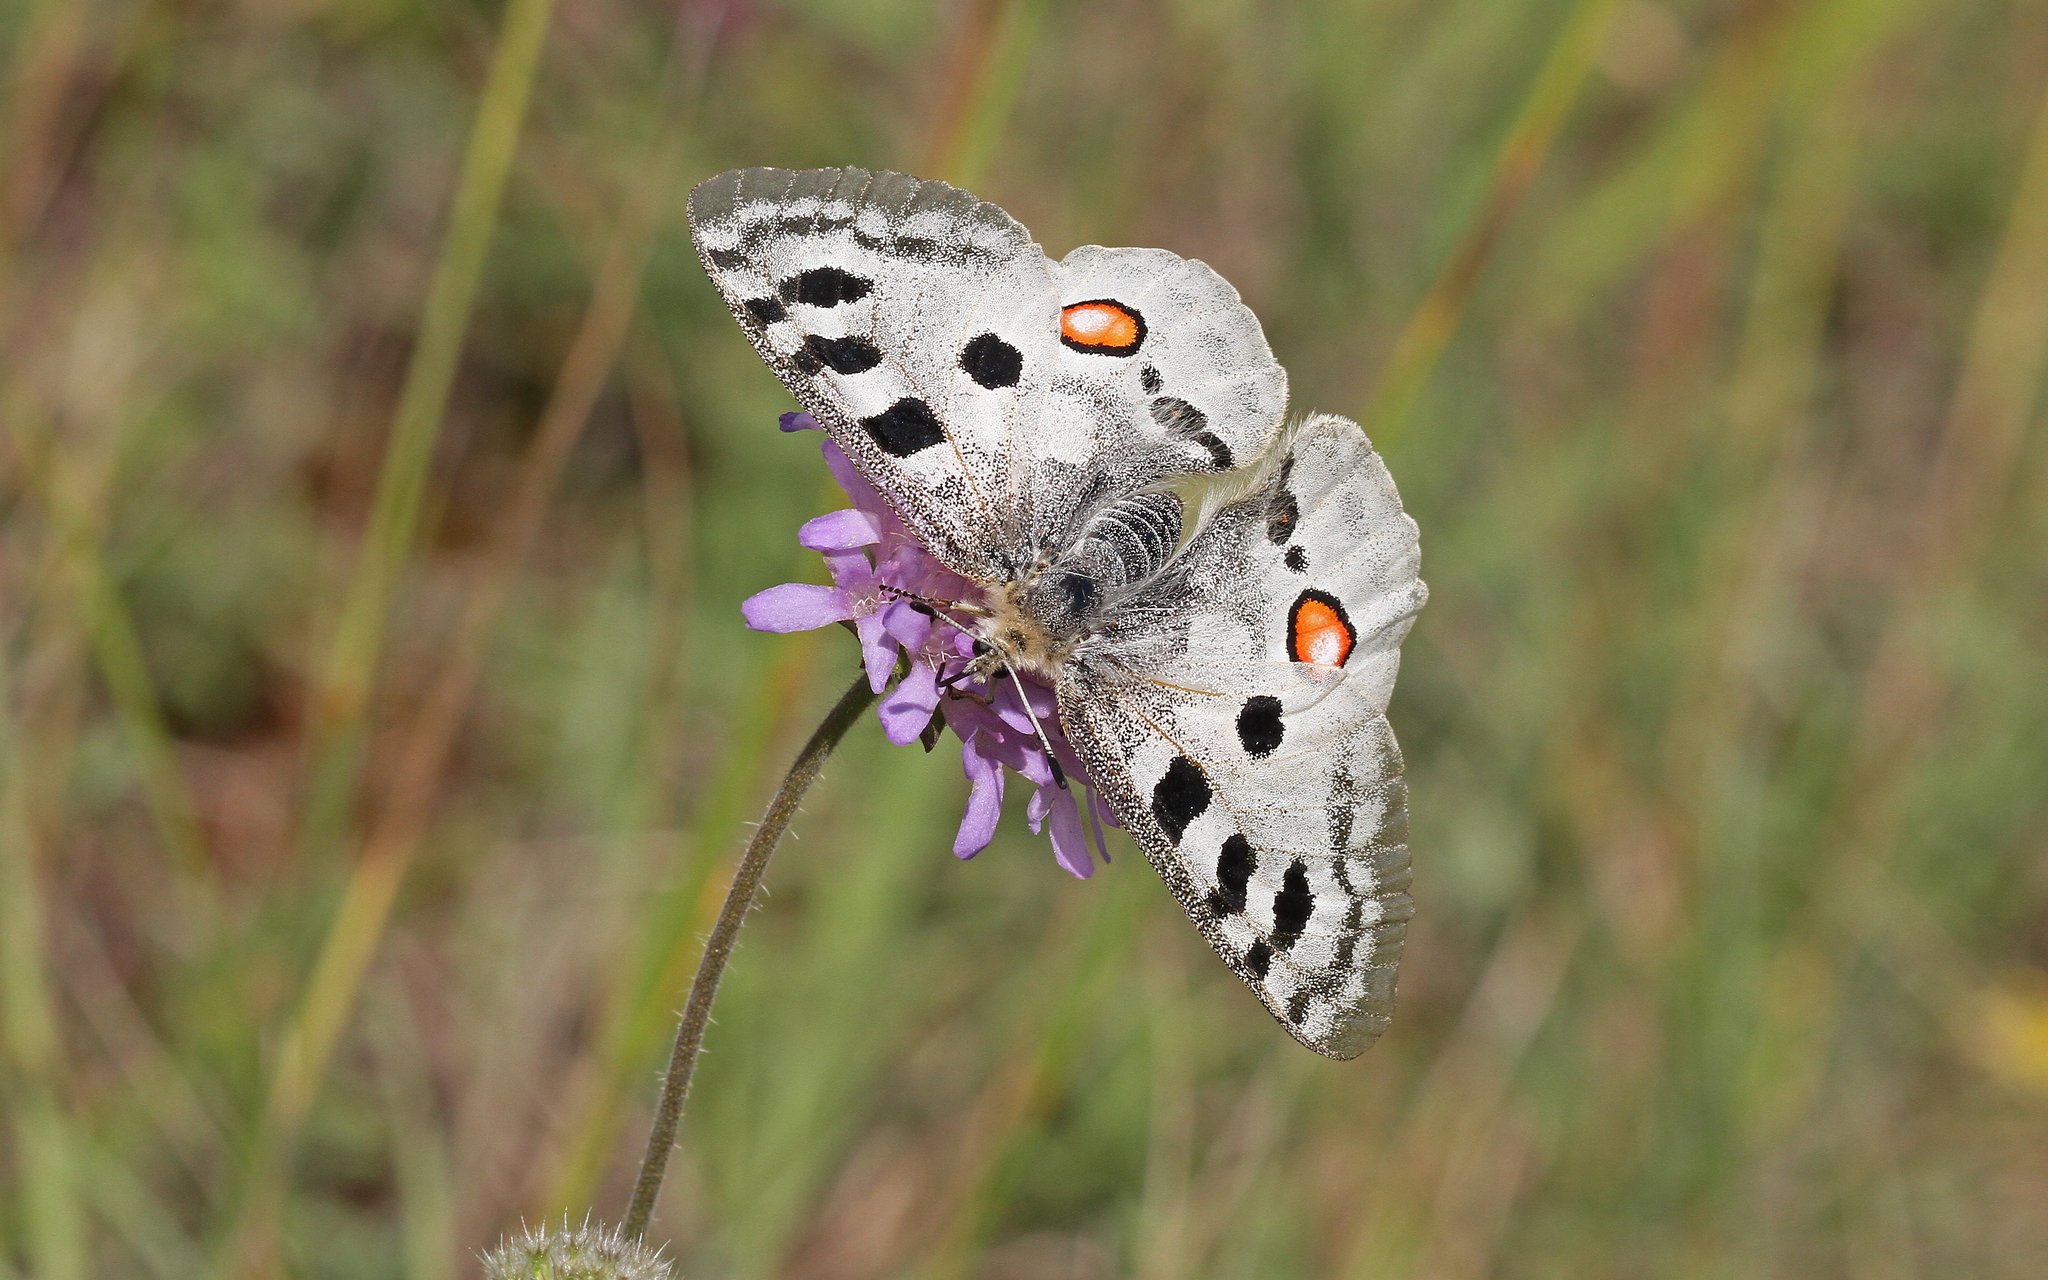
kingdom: Animalia
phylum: Arthropoda
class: Insecta
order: Lepidoptera
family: Papilionidae
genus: Parnassius
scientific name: Parnassius apollo
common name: Apollo
